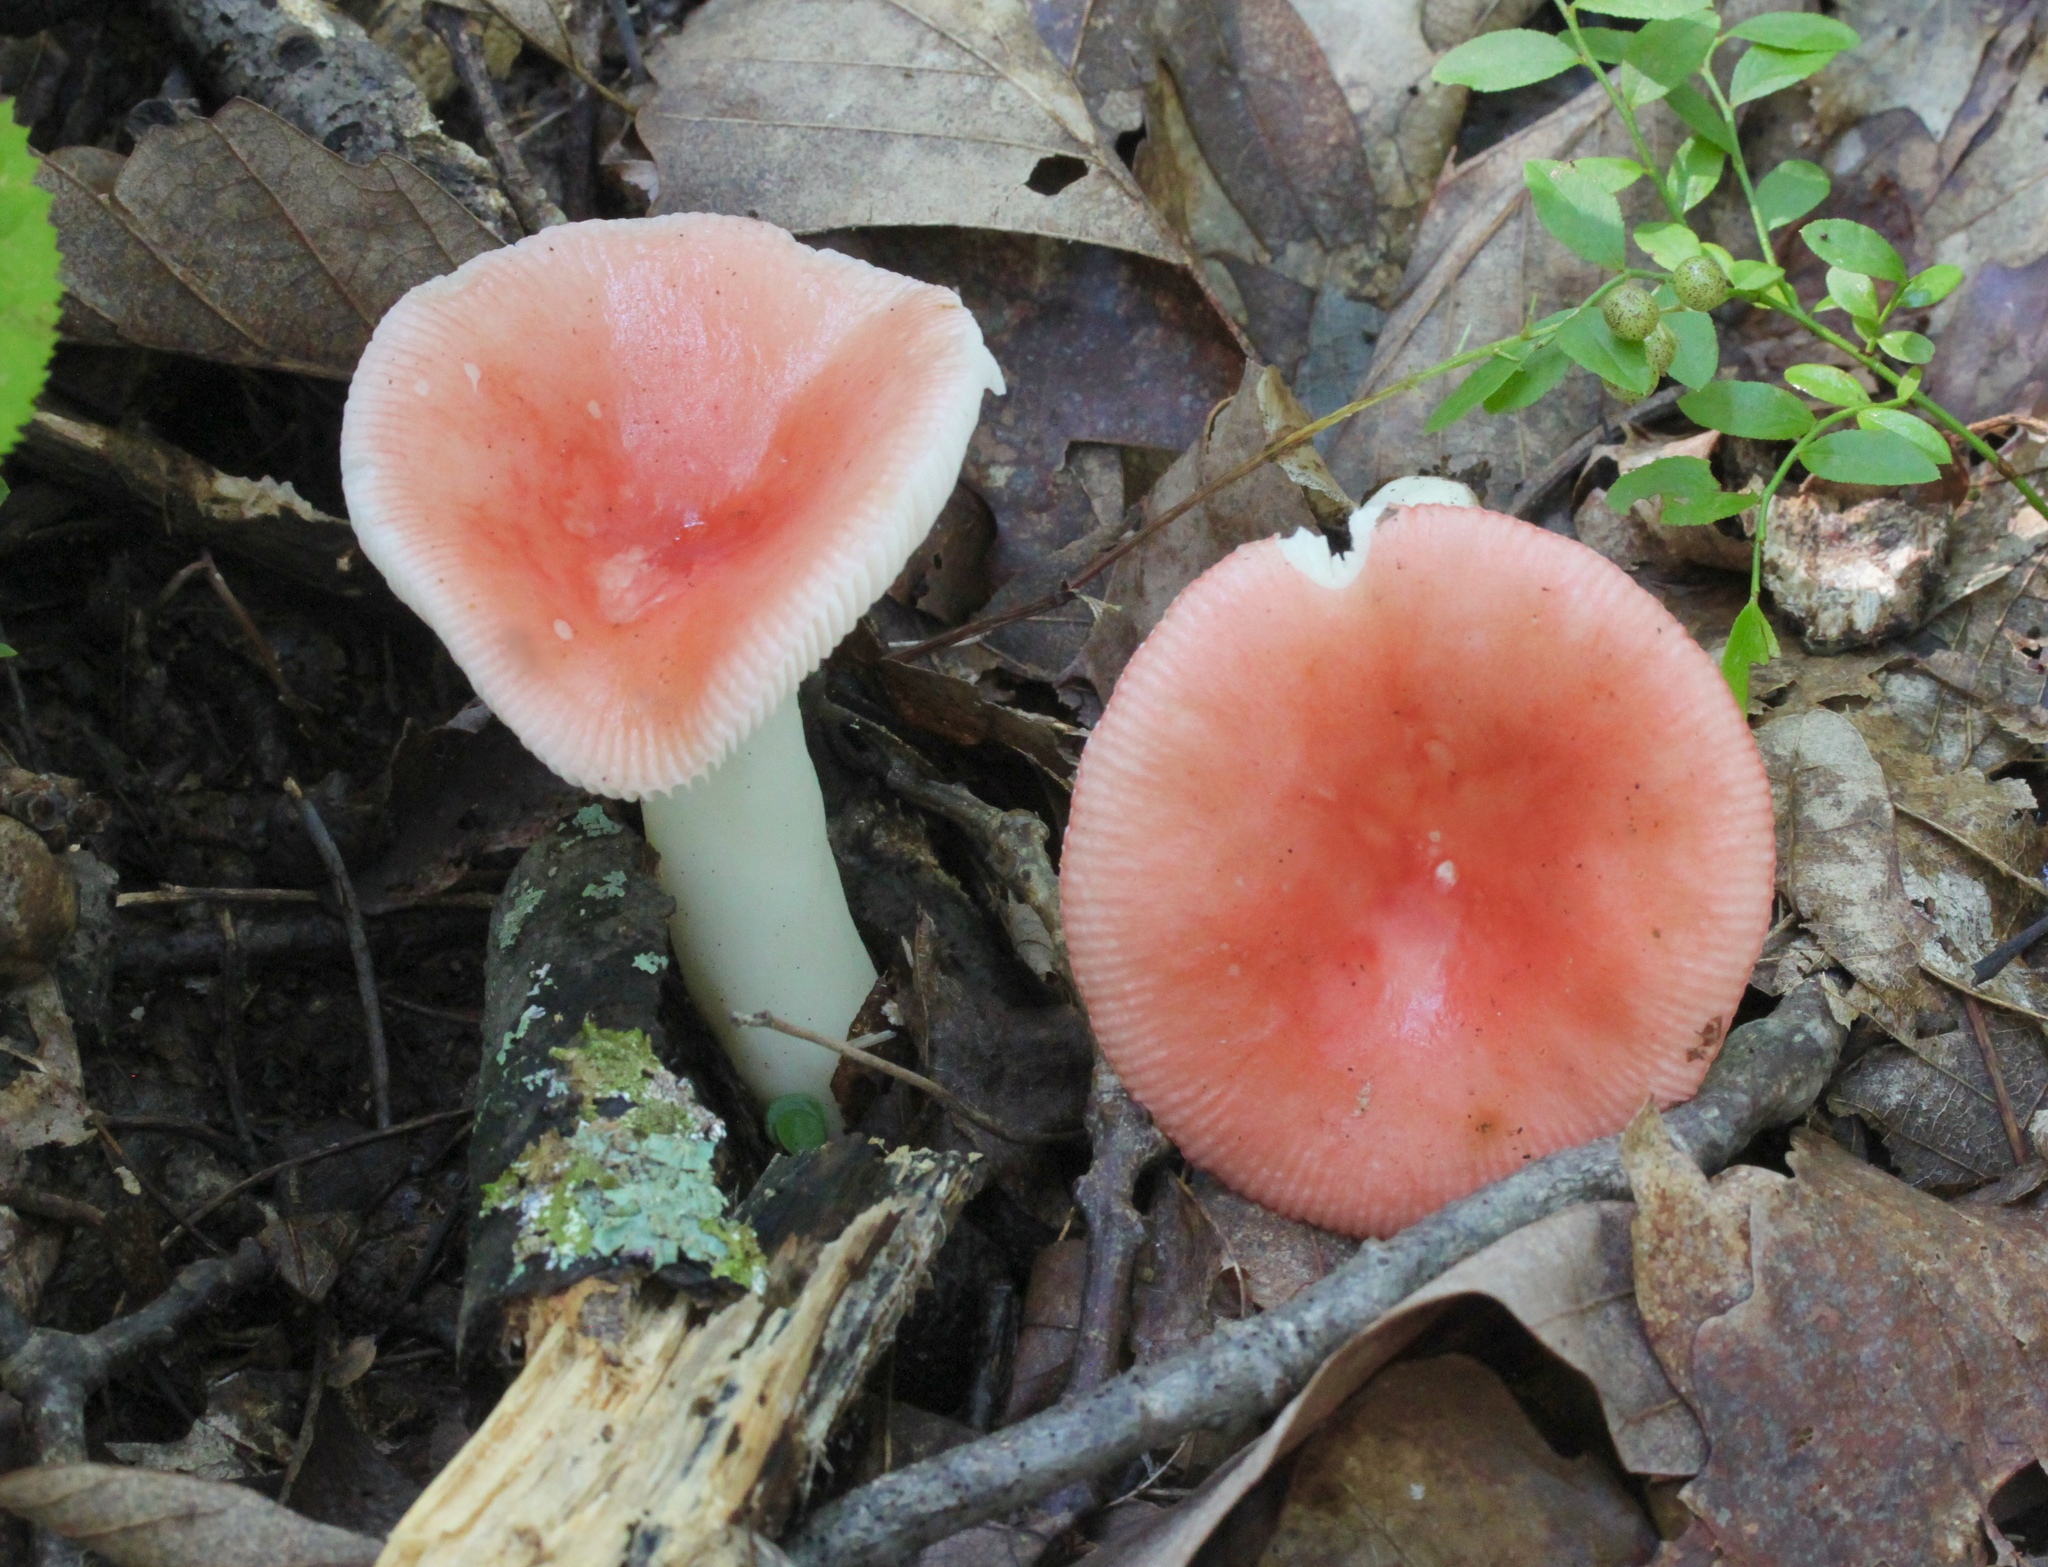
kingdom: Fungi
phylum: Basidiomycota
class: Agaricomycetes
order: Russulales
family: Russulaceae
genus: Russula
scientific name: Russula
